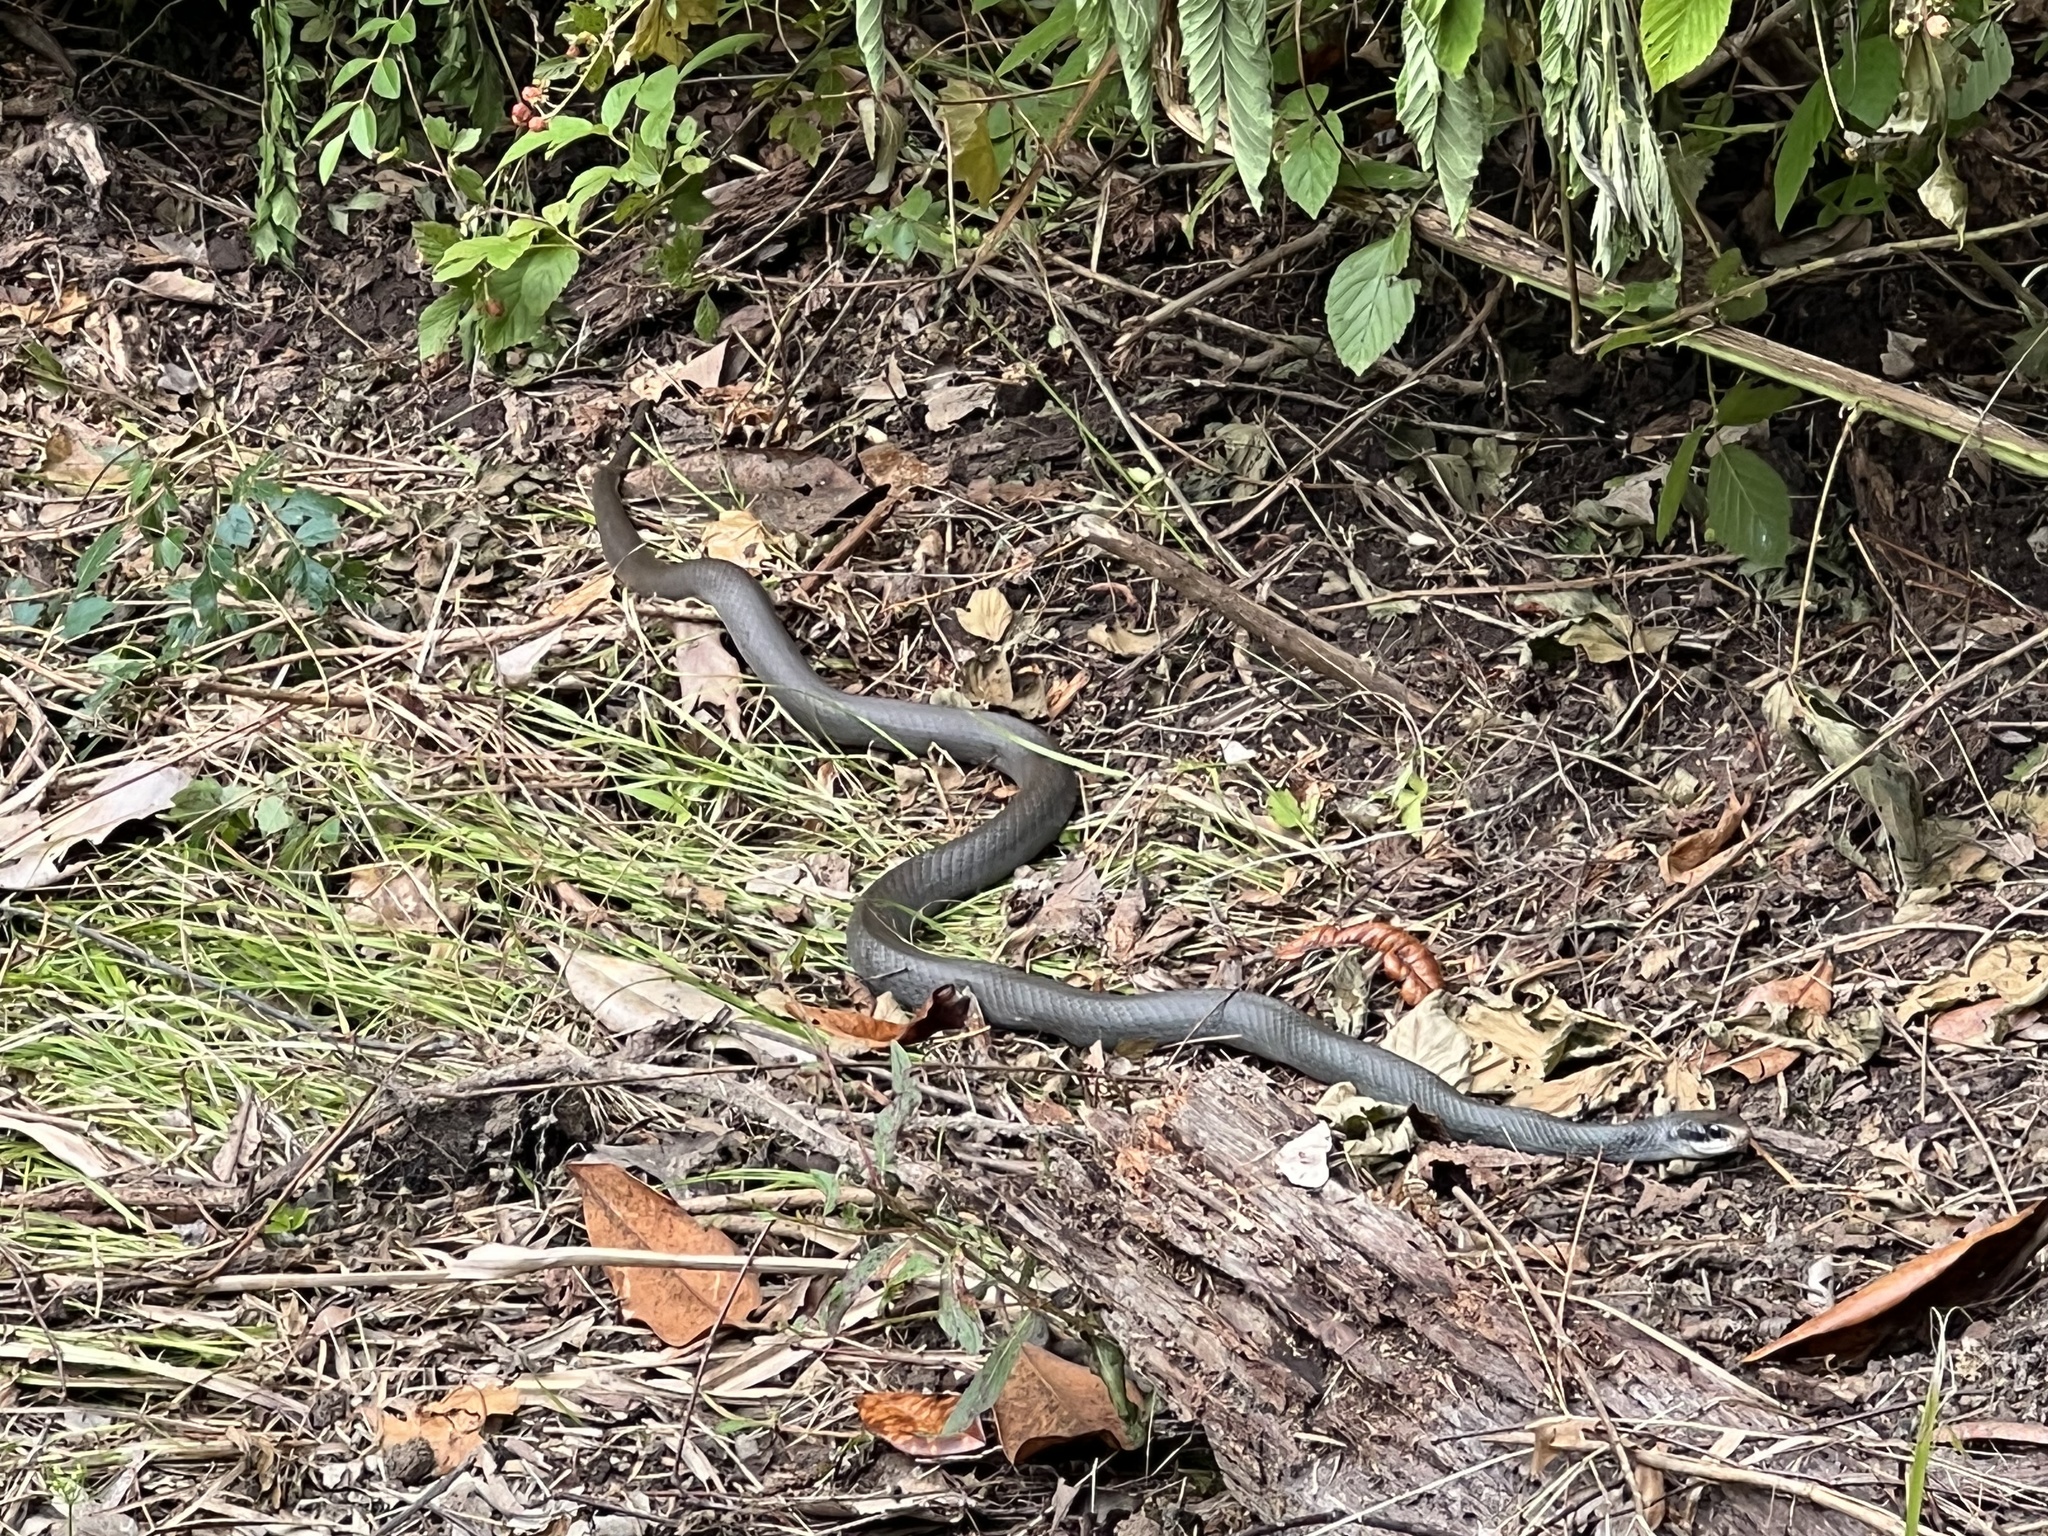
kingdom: Animalia
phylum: Chordata
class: Squamata
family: Colubridae
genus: Coluber
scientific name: Coluber constrictor
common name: Eastern racer
